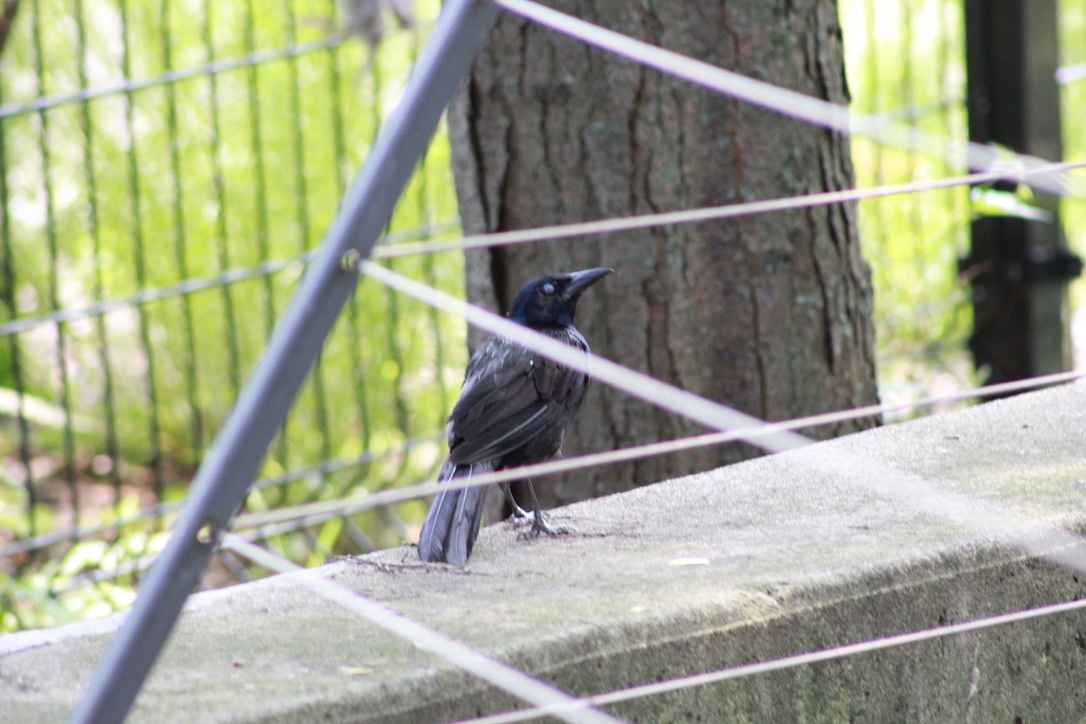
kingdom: Animalia
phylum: Chordata
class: Aves
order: Passeriformes
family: Icteridae
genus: Quiscalus
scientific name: Quiscalus quiscula
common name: Common grackle
